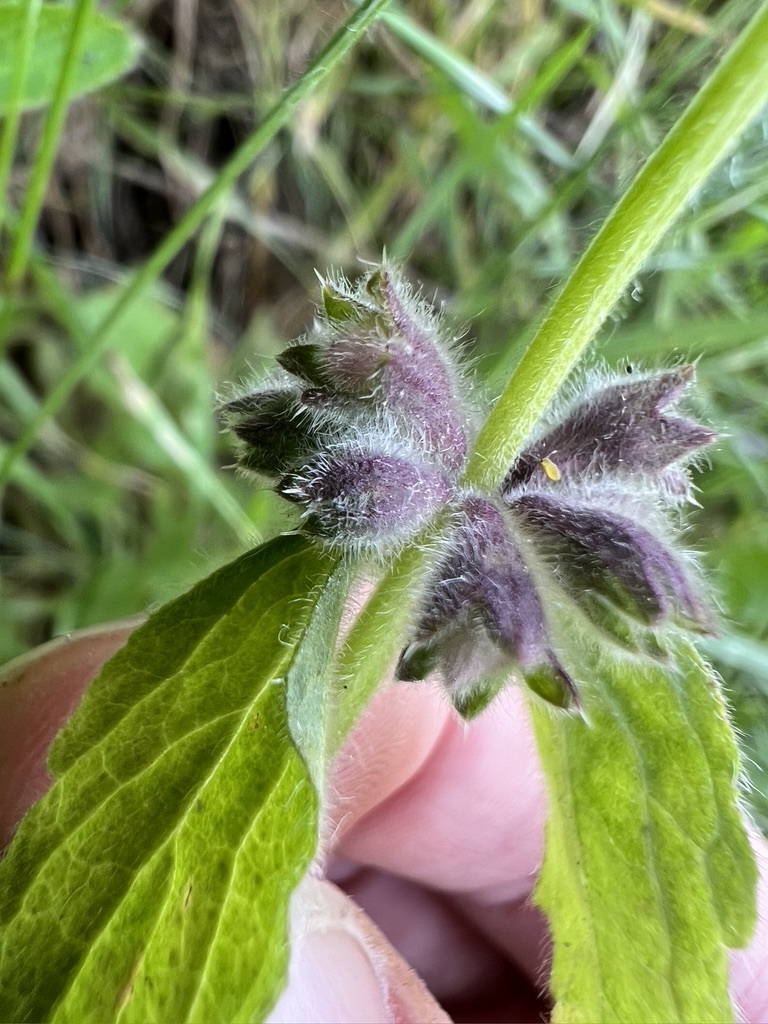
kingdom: Plantae
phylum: Tracheophyta
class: Magnoliopsida
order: Lamiales
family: Lamiaceae
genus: Stachys
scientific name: Stachys rigida
